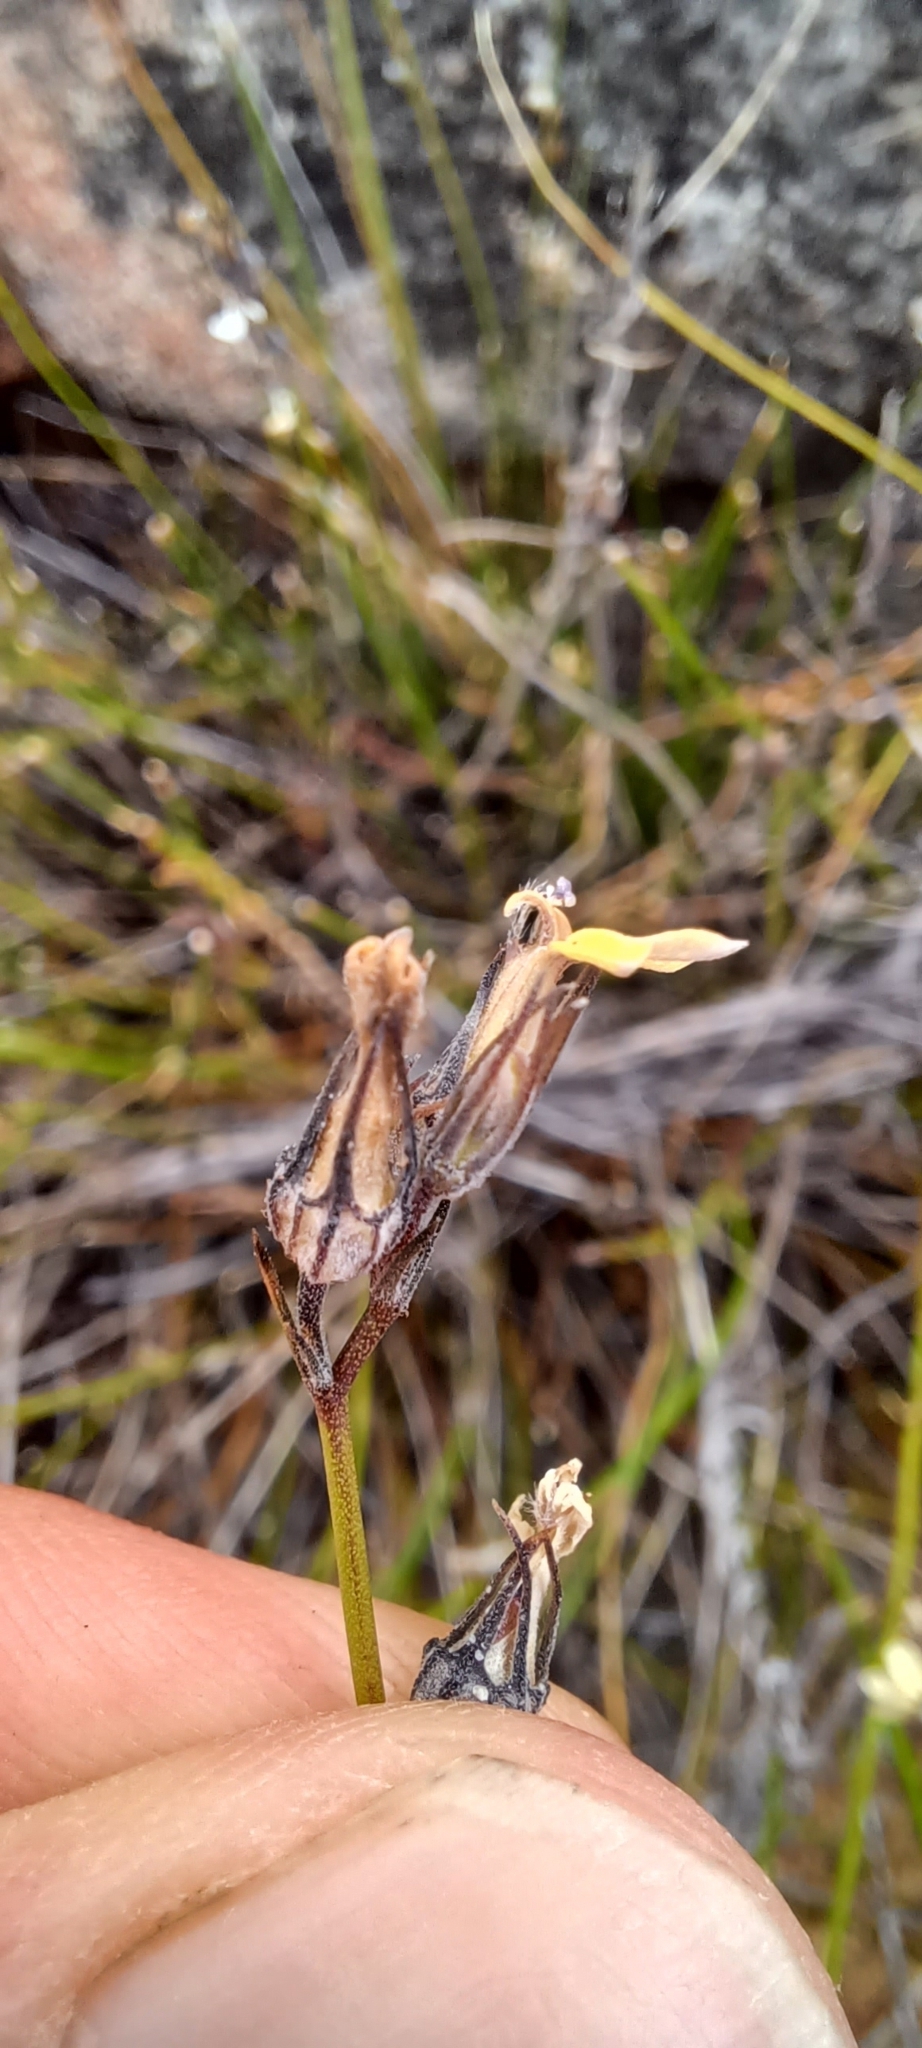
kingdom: Plantae
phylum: Tracheophyta
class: Magnoliopsida
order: Asterales
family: Campanulaceae
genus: Lobelia
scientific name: Lobelia linearis
